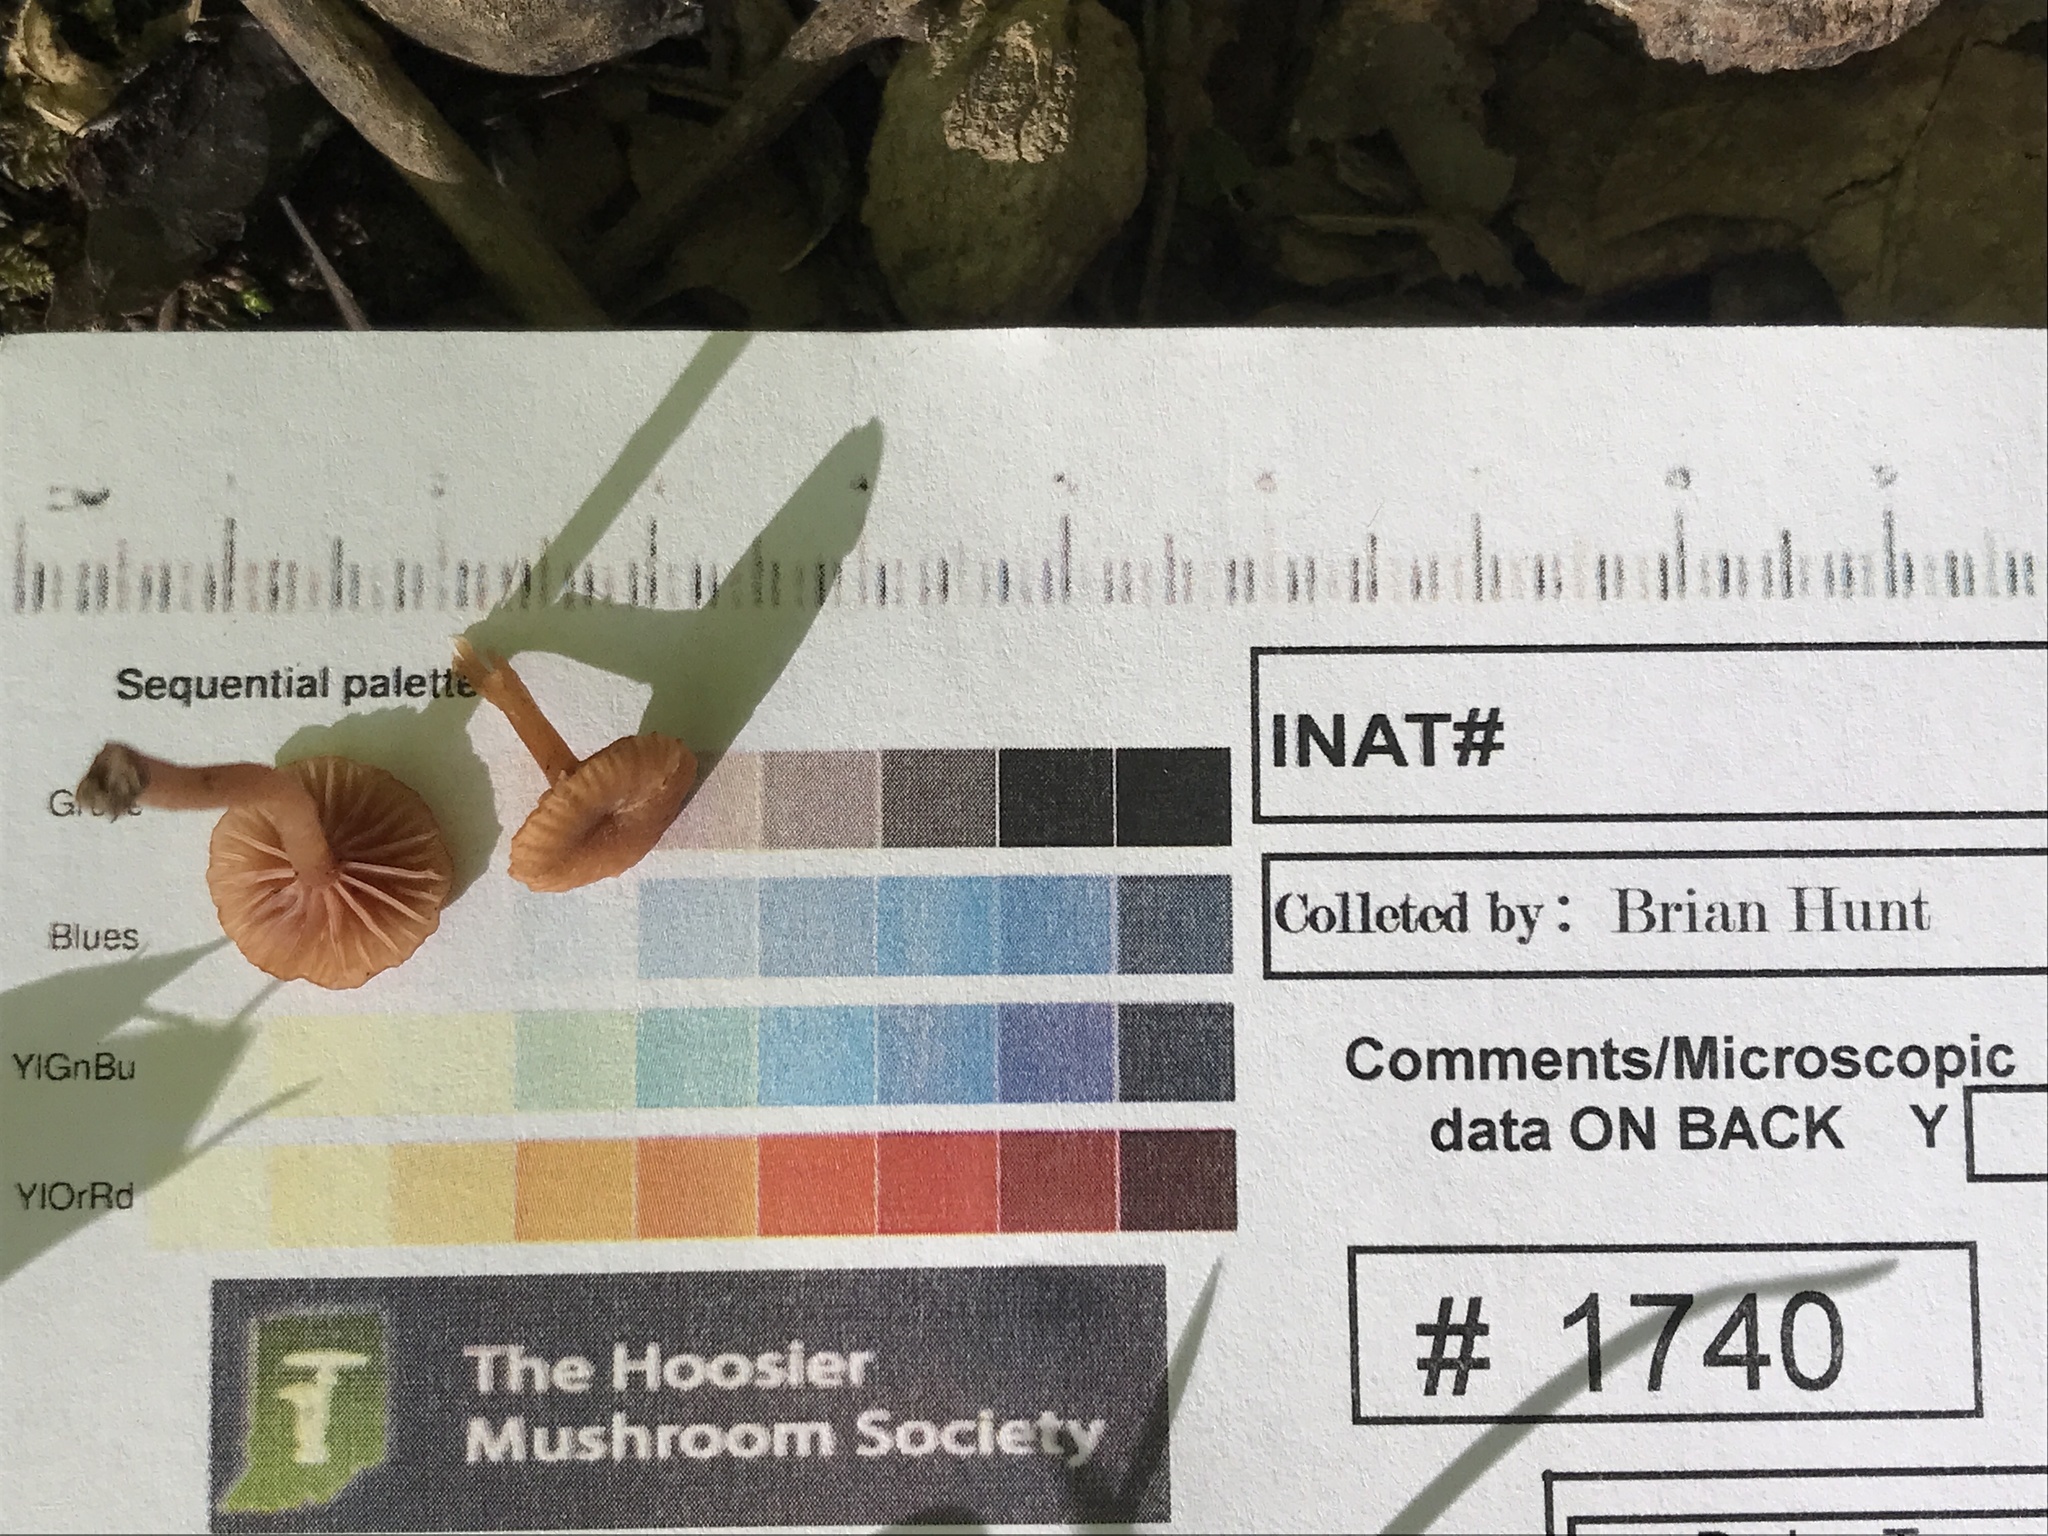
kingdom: Fungi
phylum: Basidiomycota
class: Agaricomycetes
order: Agaricales
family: Hydnangiaceae
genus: Laccaria
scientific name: Laccaria laccata
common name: Deceiver
